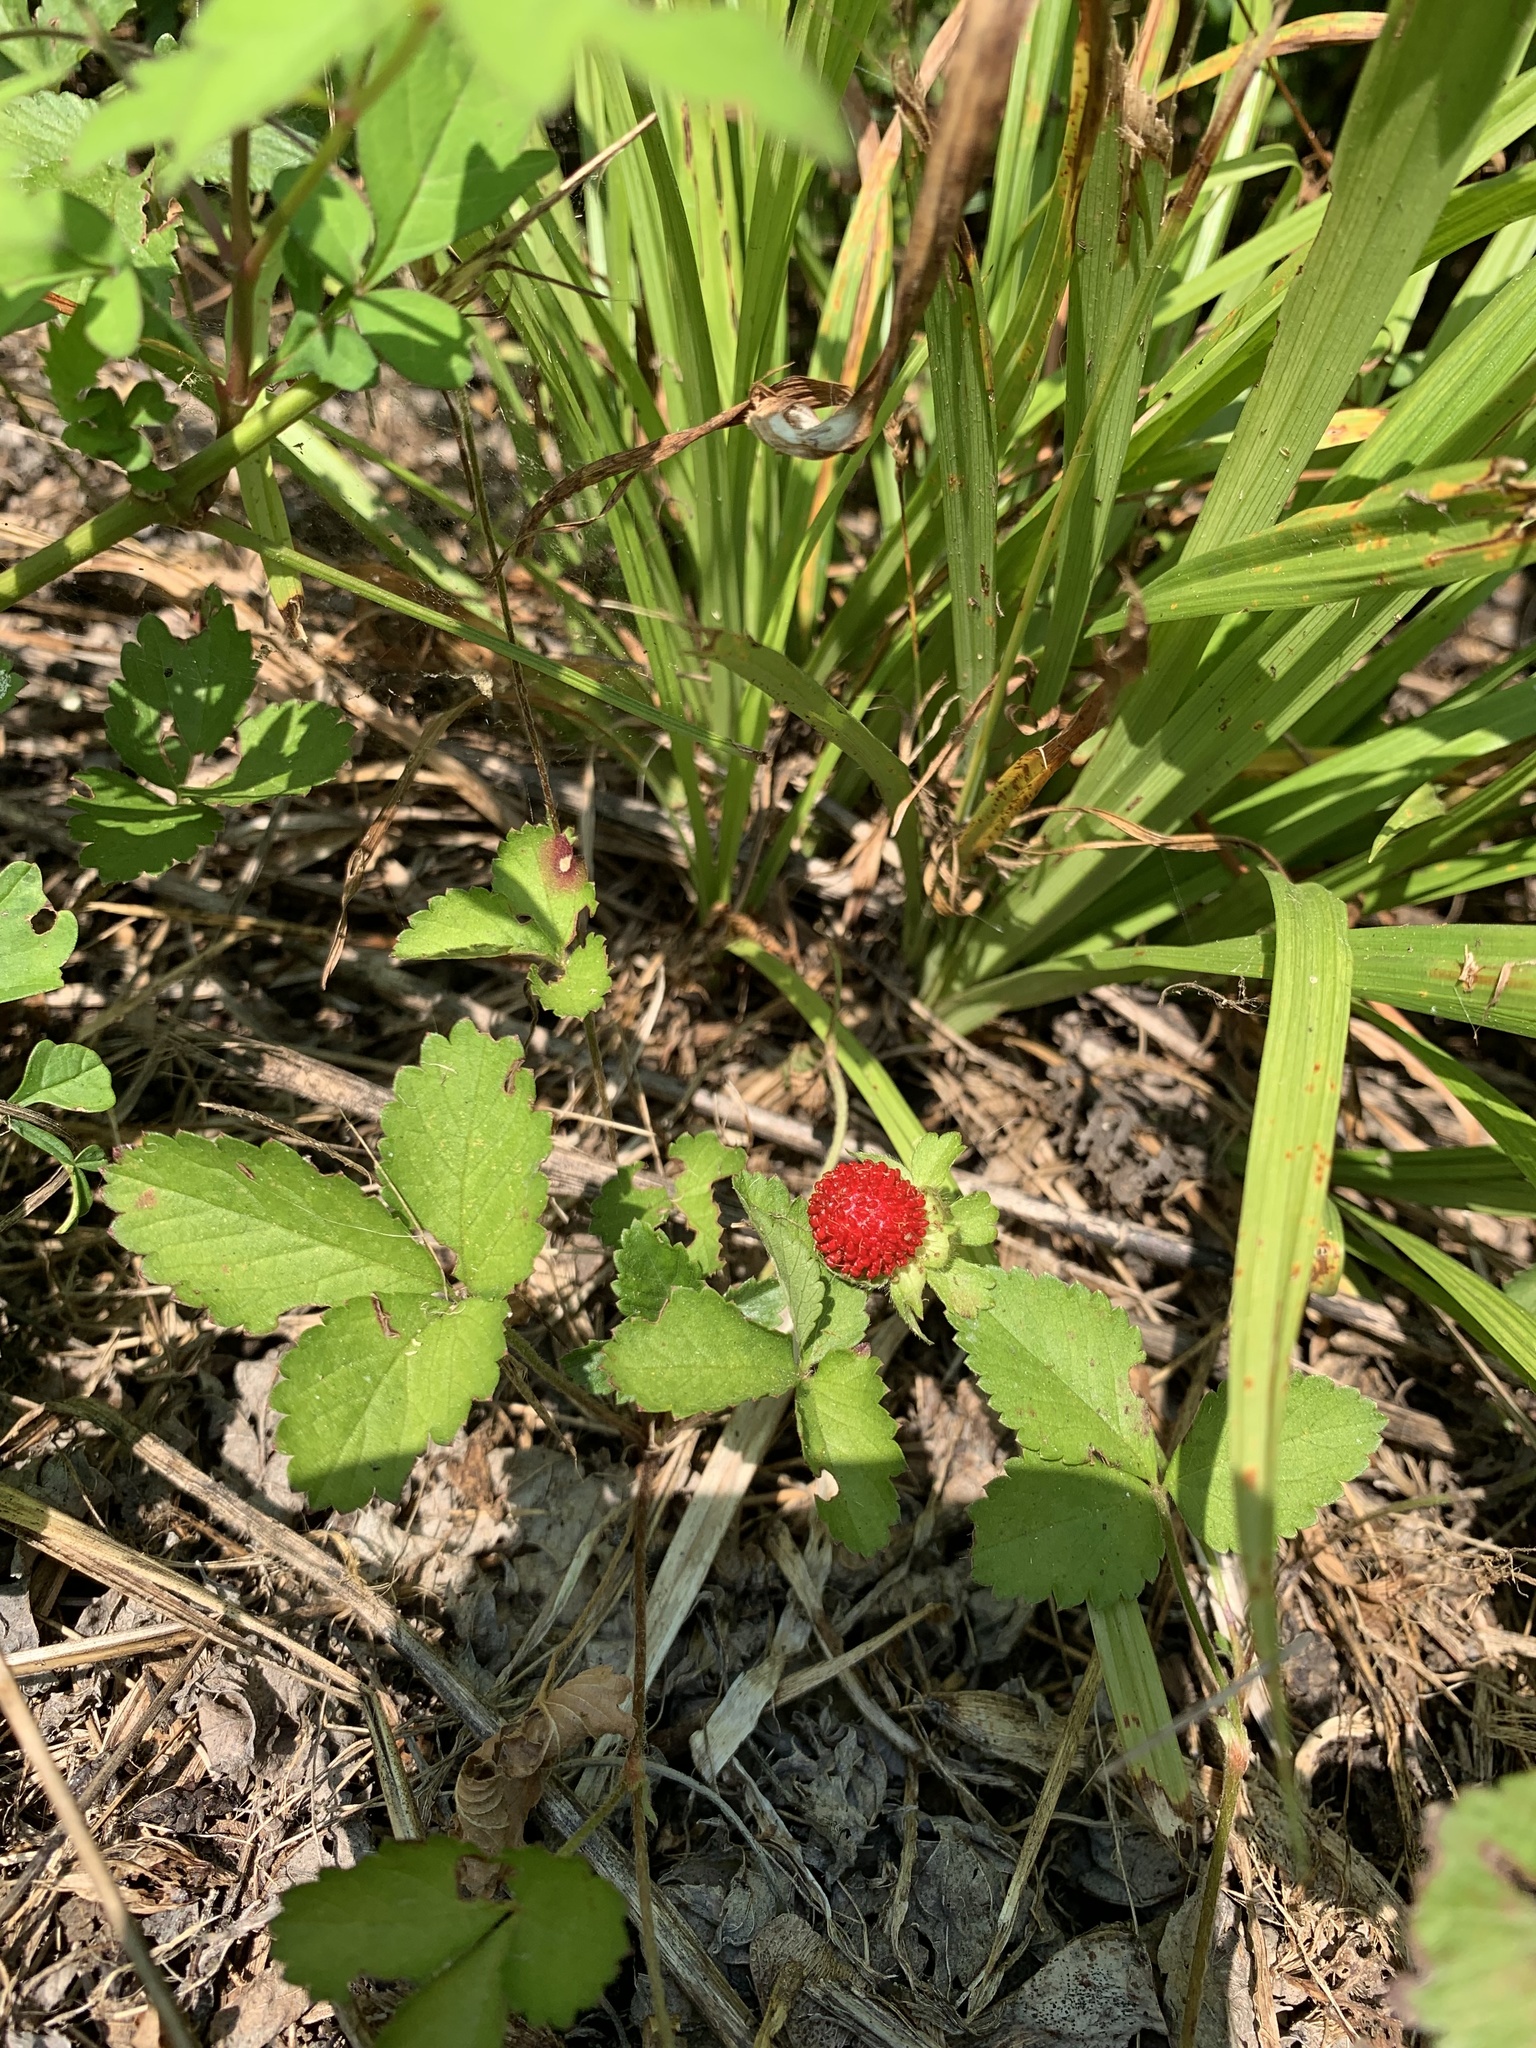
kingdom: Plantae
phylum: Tracheophyta
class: Magnoliopsida
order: Rosales
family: Rosaceae
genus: Potentilla
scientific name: Potentilla indica
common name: Yellow-flowered strawberry
